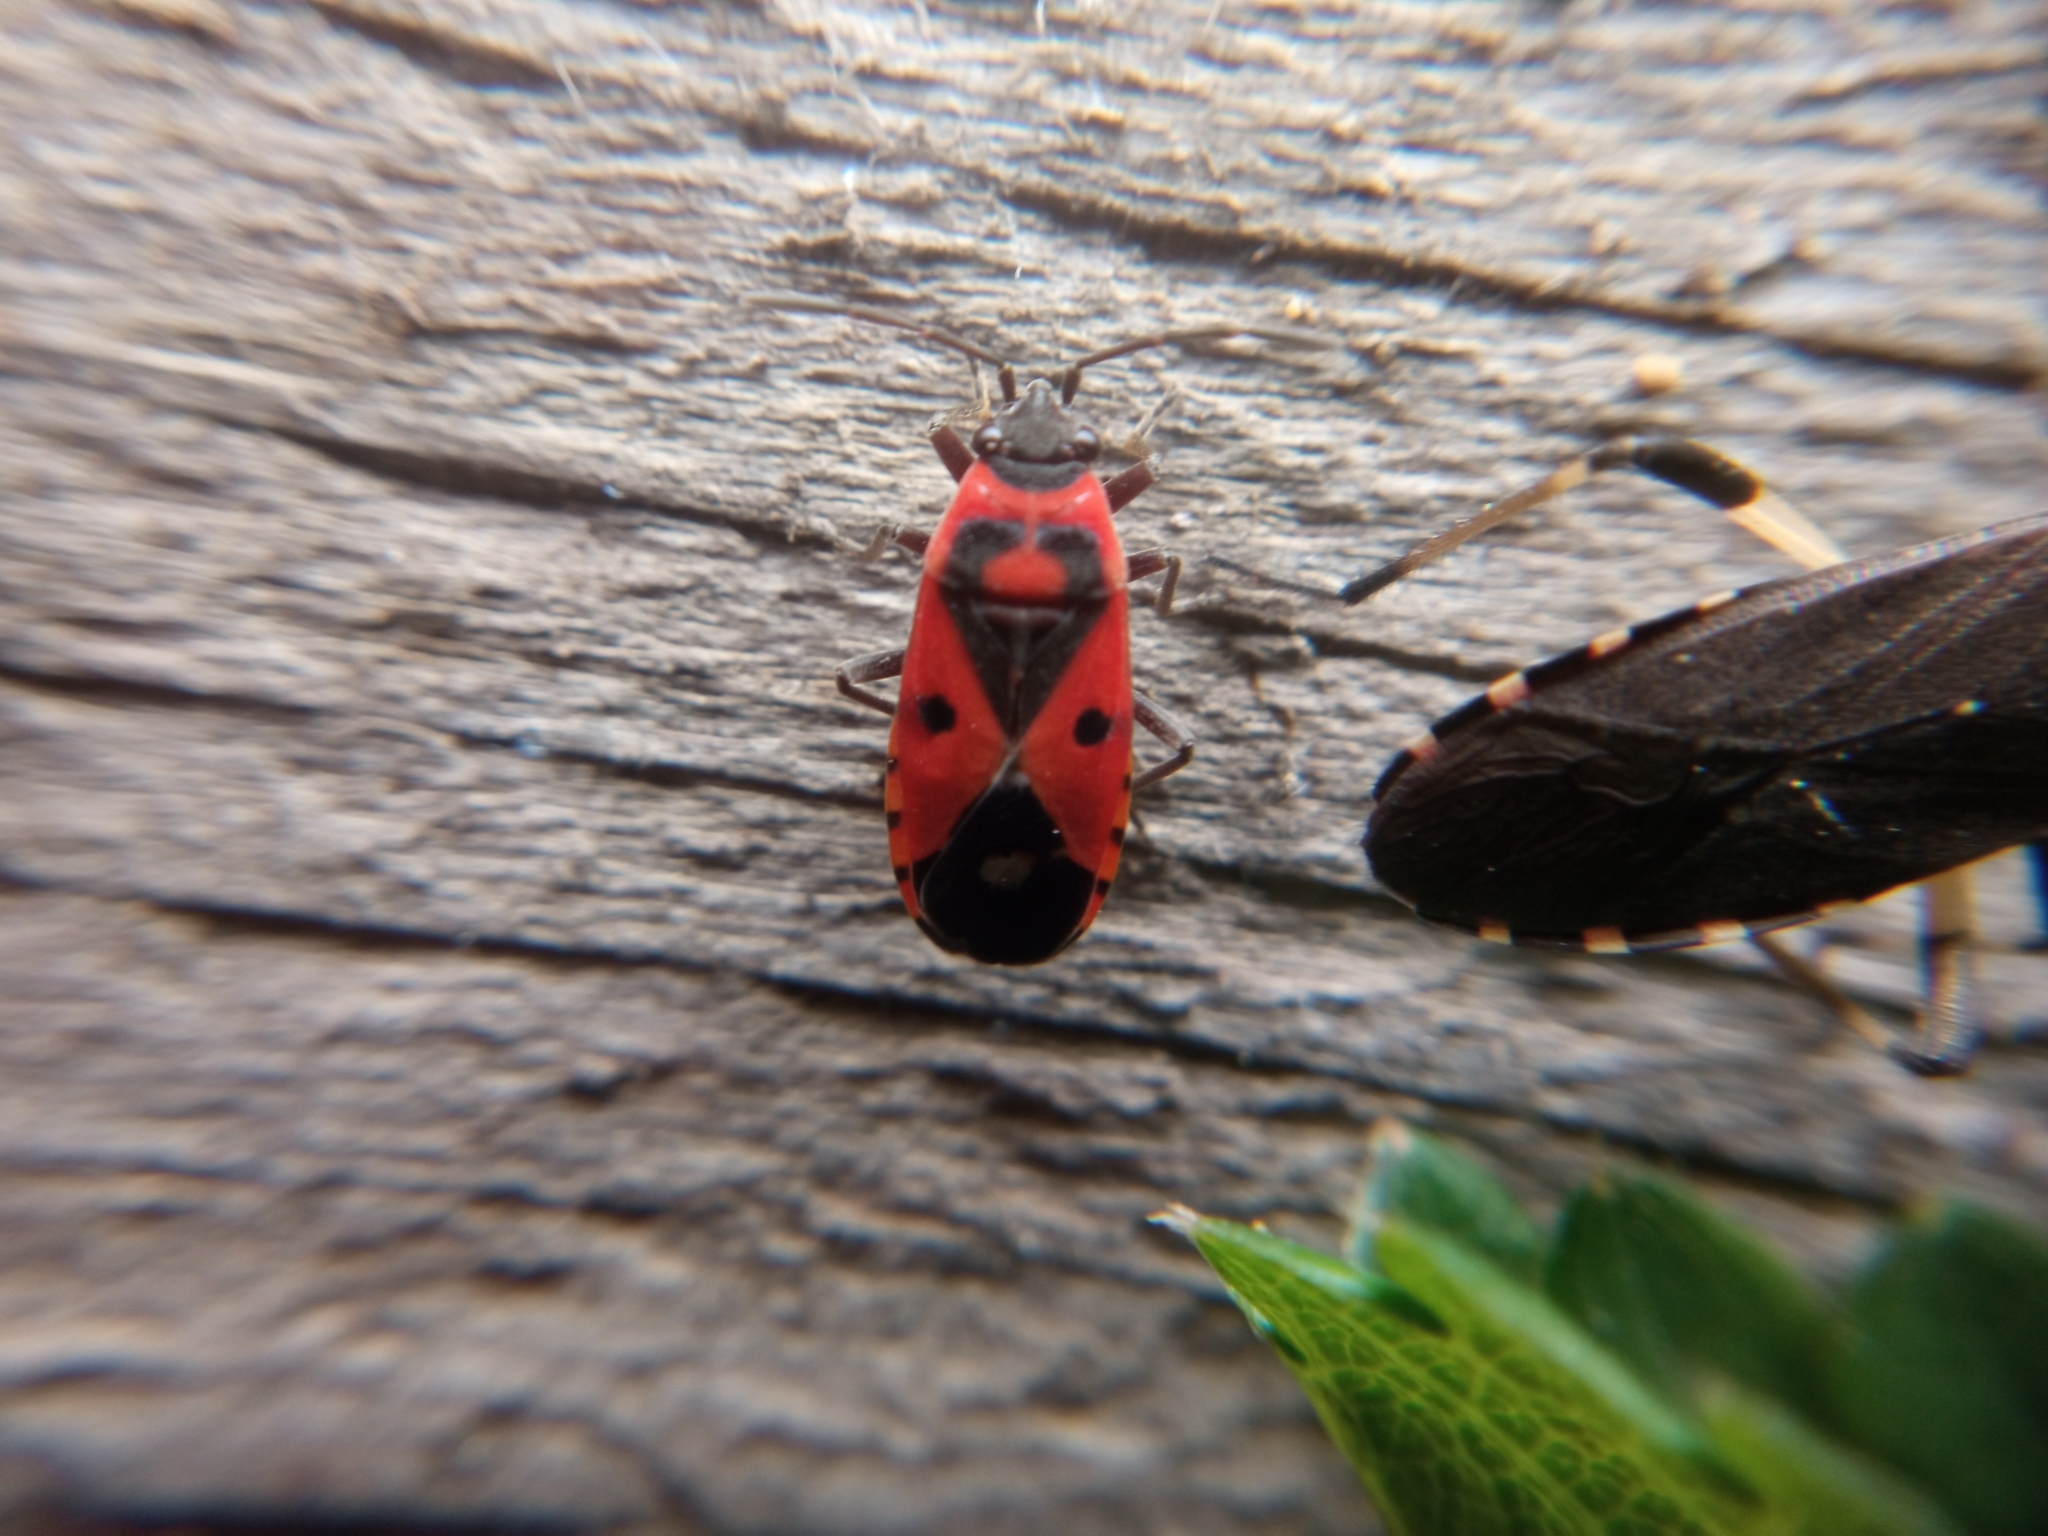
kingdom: Animalia
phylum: Arthropoda
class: Insecta
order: Hemiptera
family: Lygaeidae
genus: Melanocoryphus
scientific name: Melanocoryphus albomaculatus
